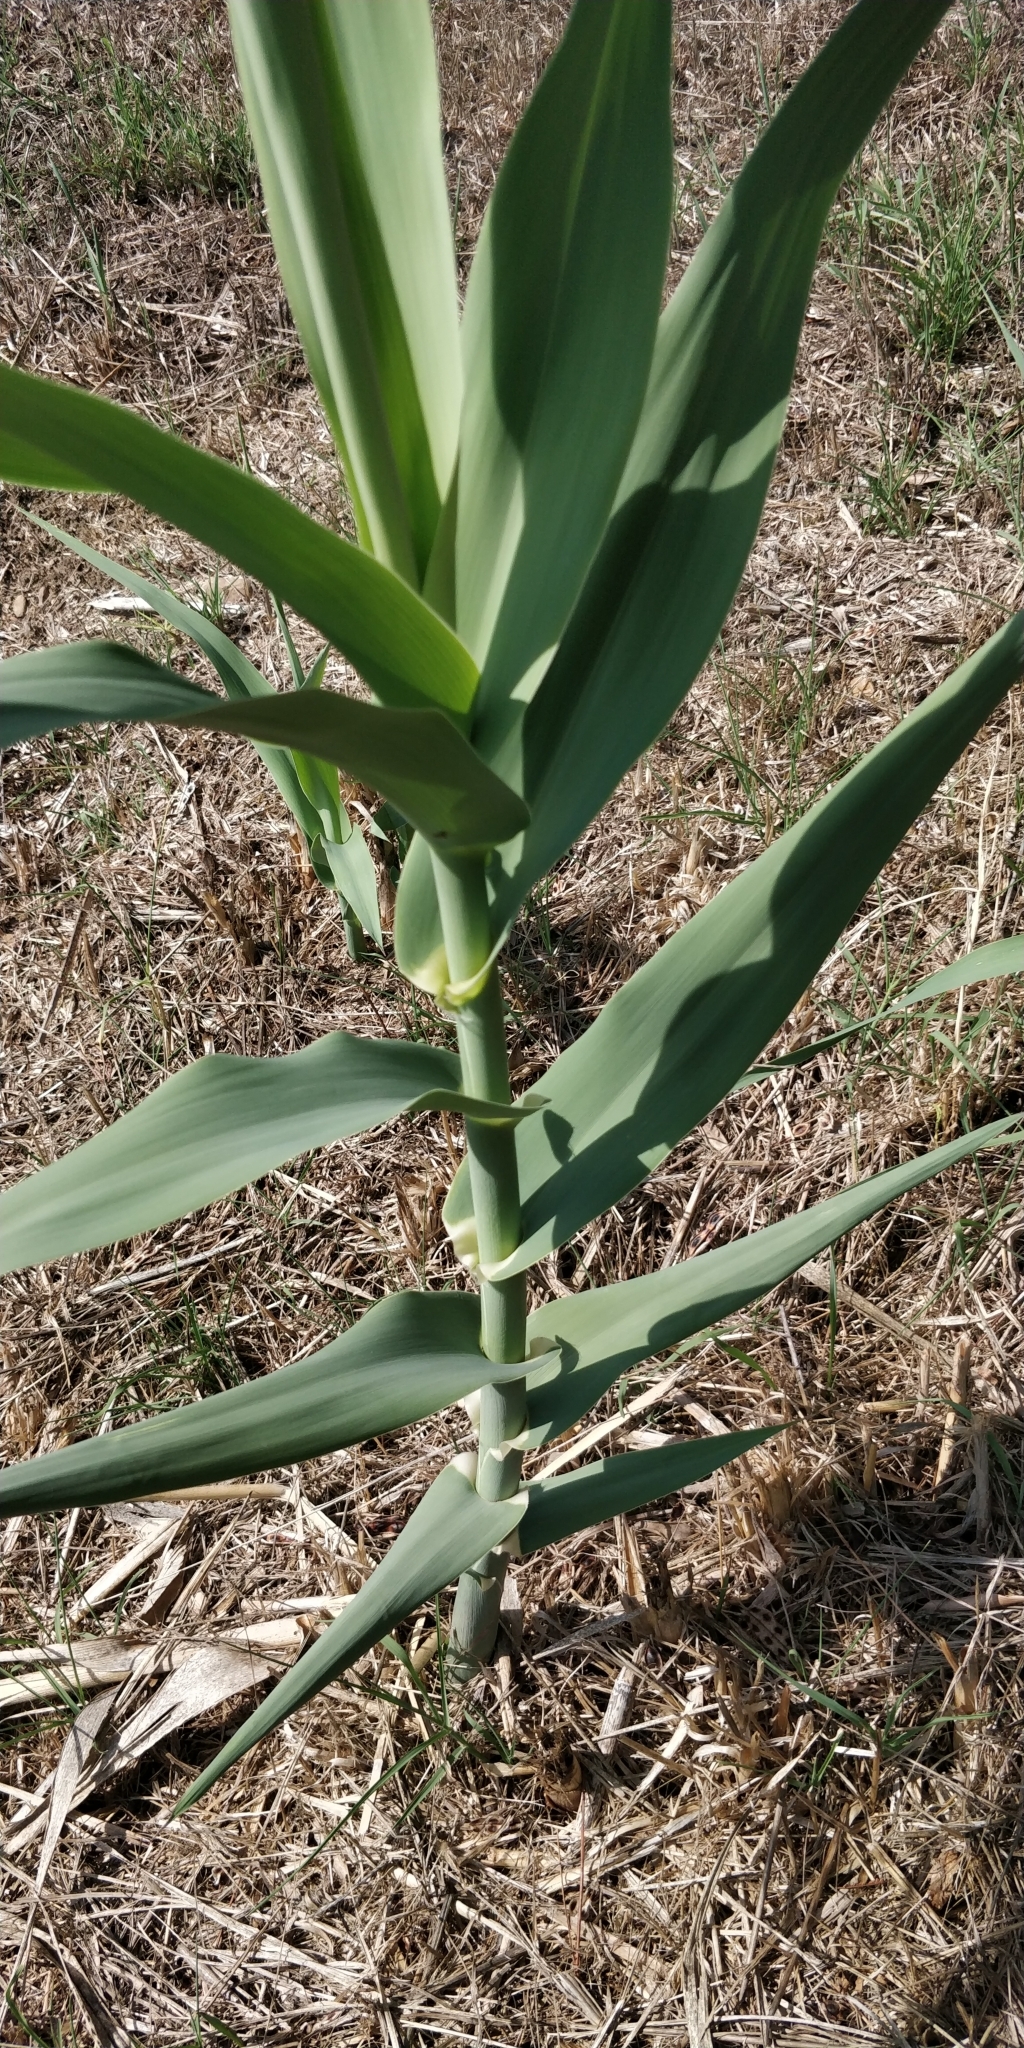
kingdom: Plantae
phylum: Tracheophyta
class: Liliopsida
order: Poales
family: Poaceae
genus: Arundo
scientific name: Arundo donax
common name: Giant reed
